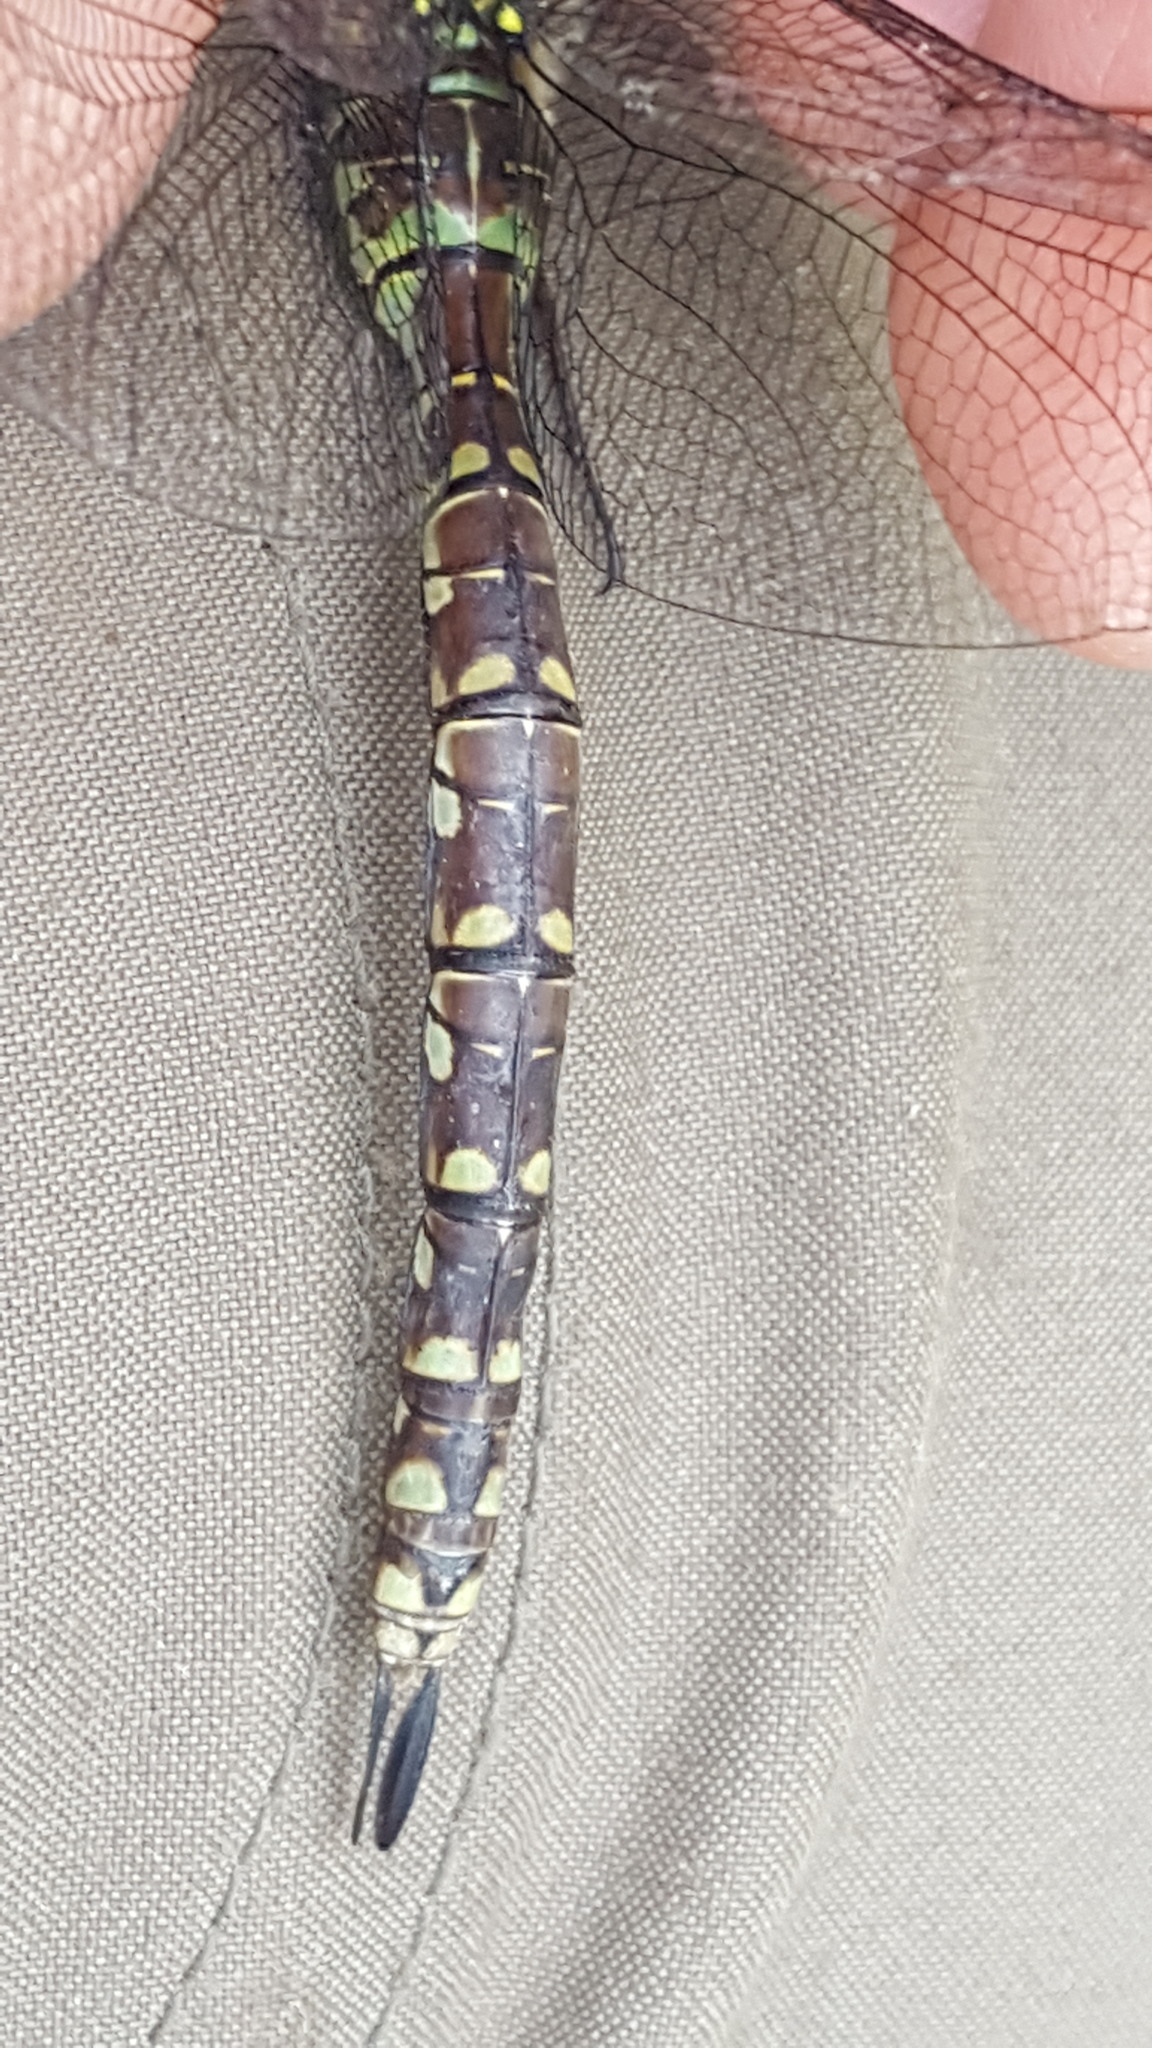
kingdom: Animalia
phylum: Arthropoda
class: Insecta
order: Odonata
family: Aeshnidae
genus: Aeshna
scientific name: Aeshna canadensis
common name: Canada darner
